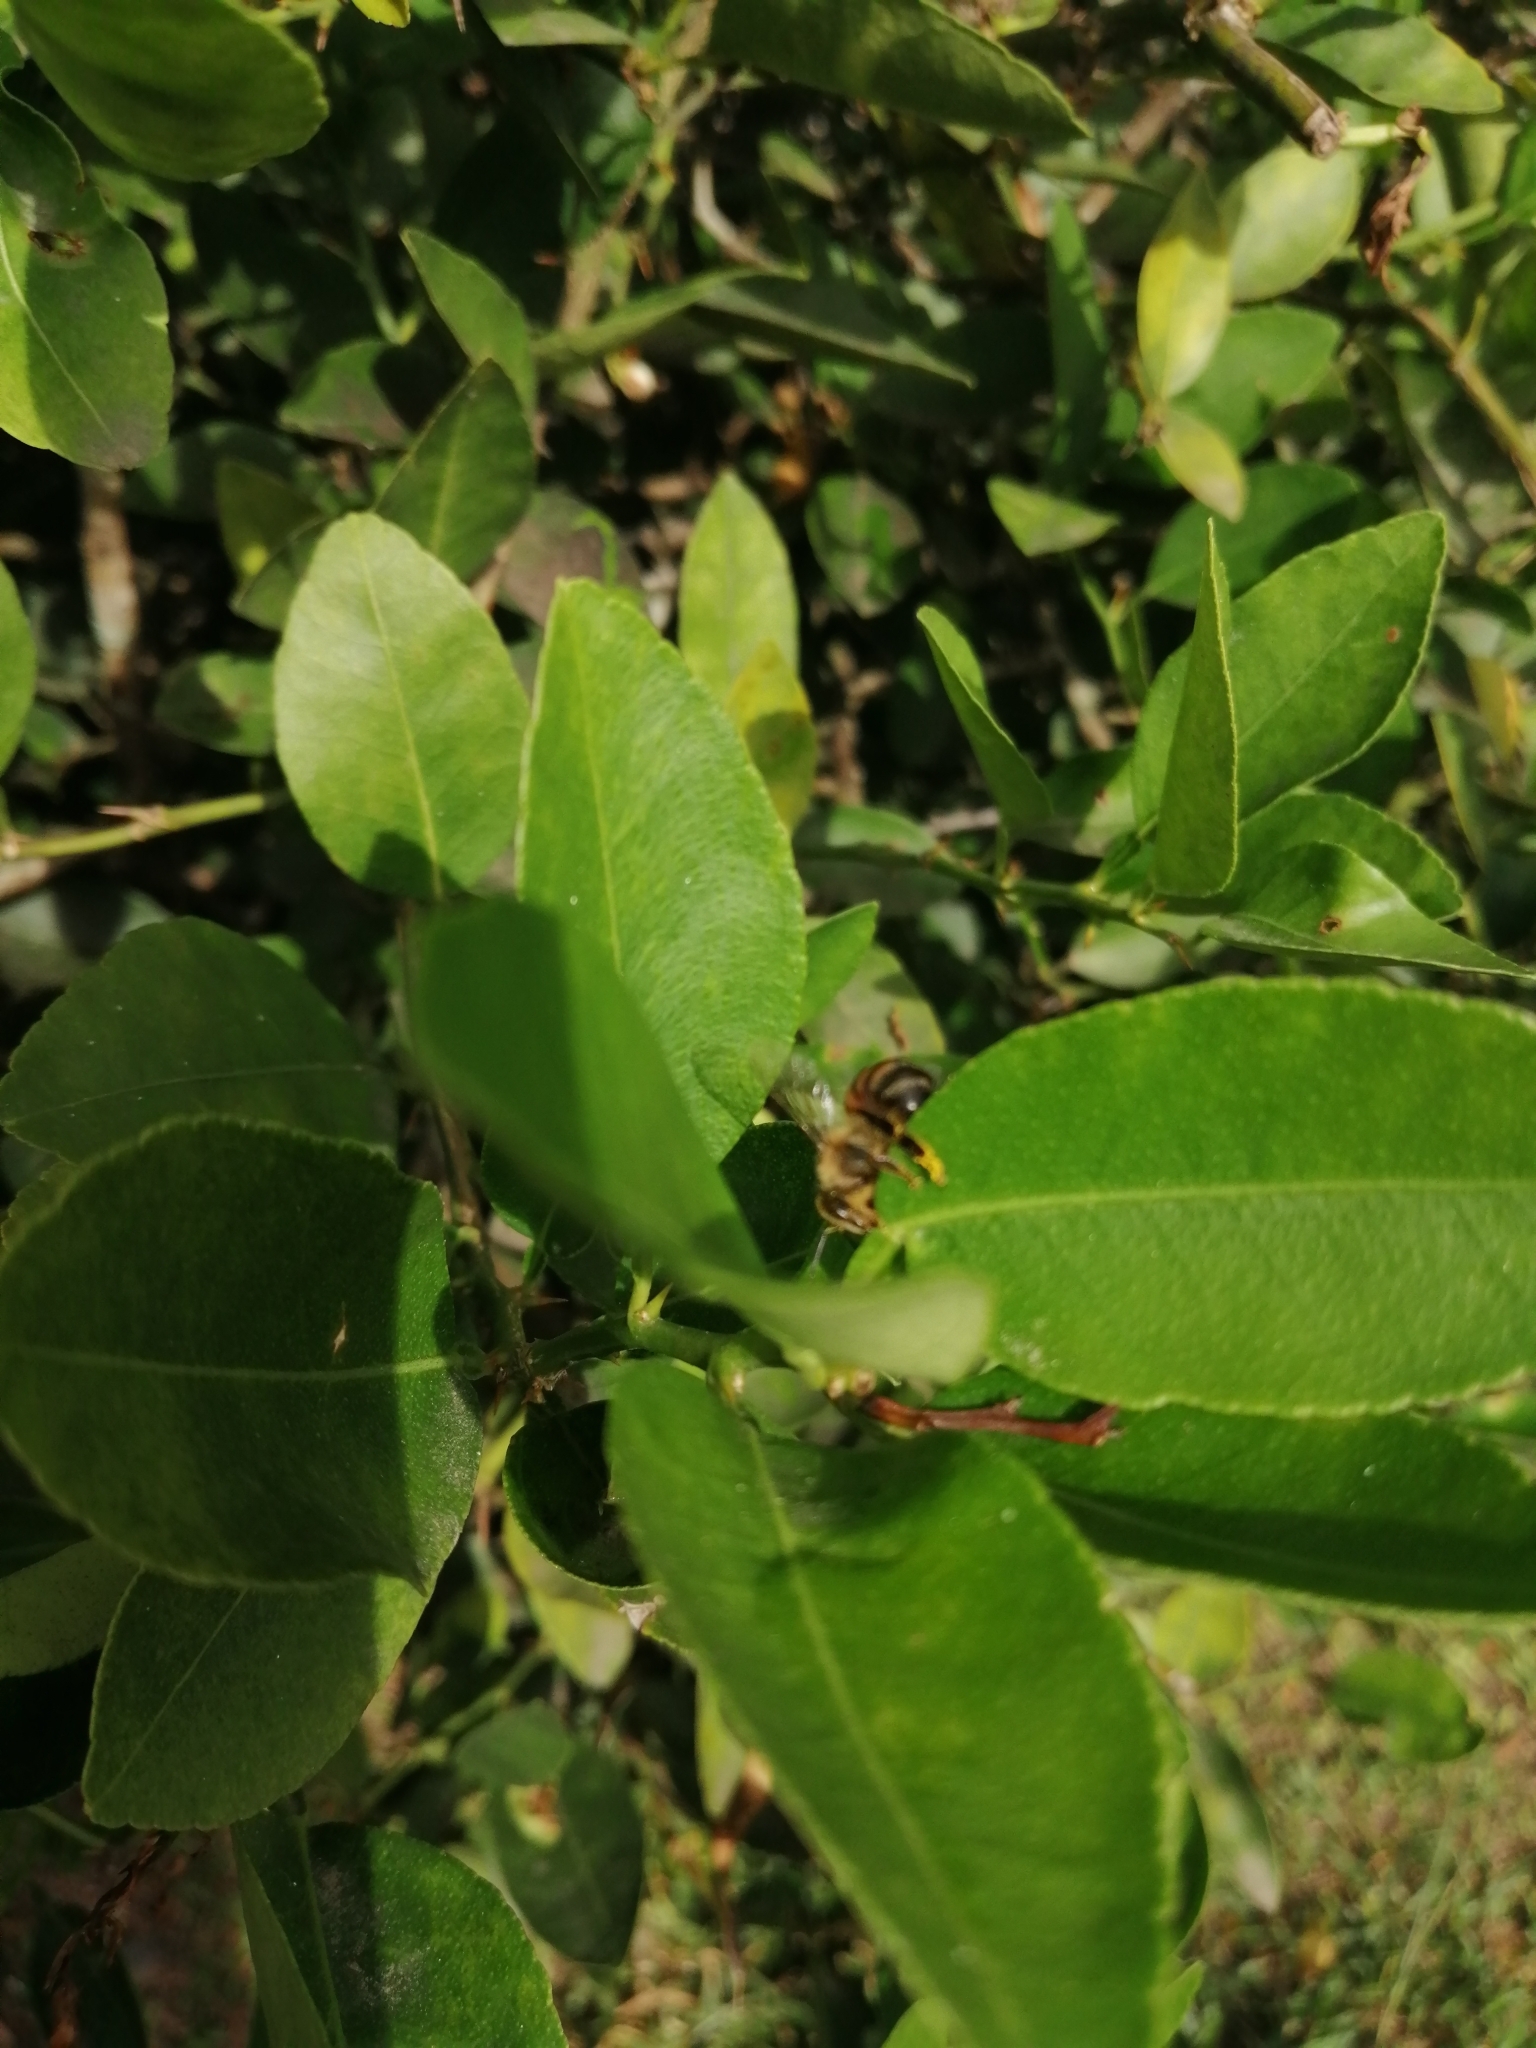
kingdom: Animalia
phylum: Arthropoda
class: Insecta
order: Hymenoptera
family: Apidae
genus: Apis
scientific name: Apis mellifera
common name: Honey bee
